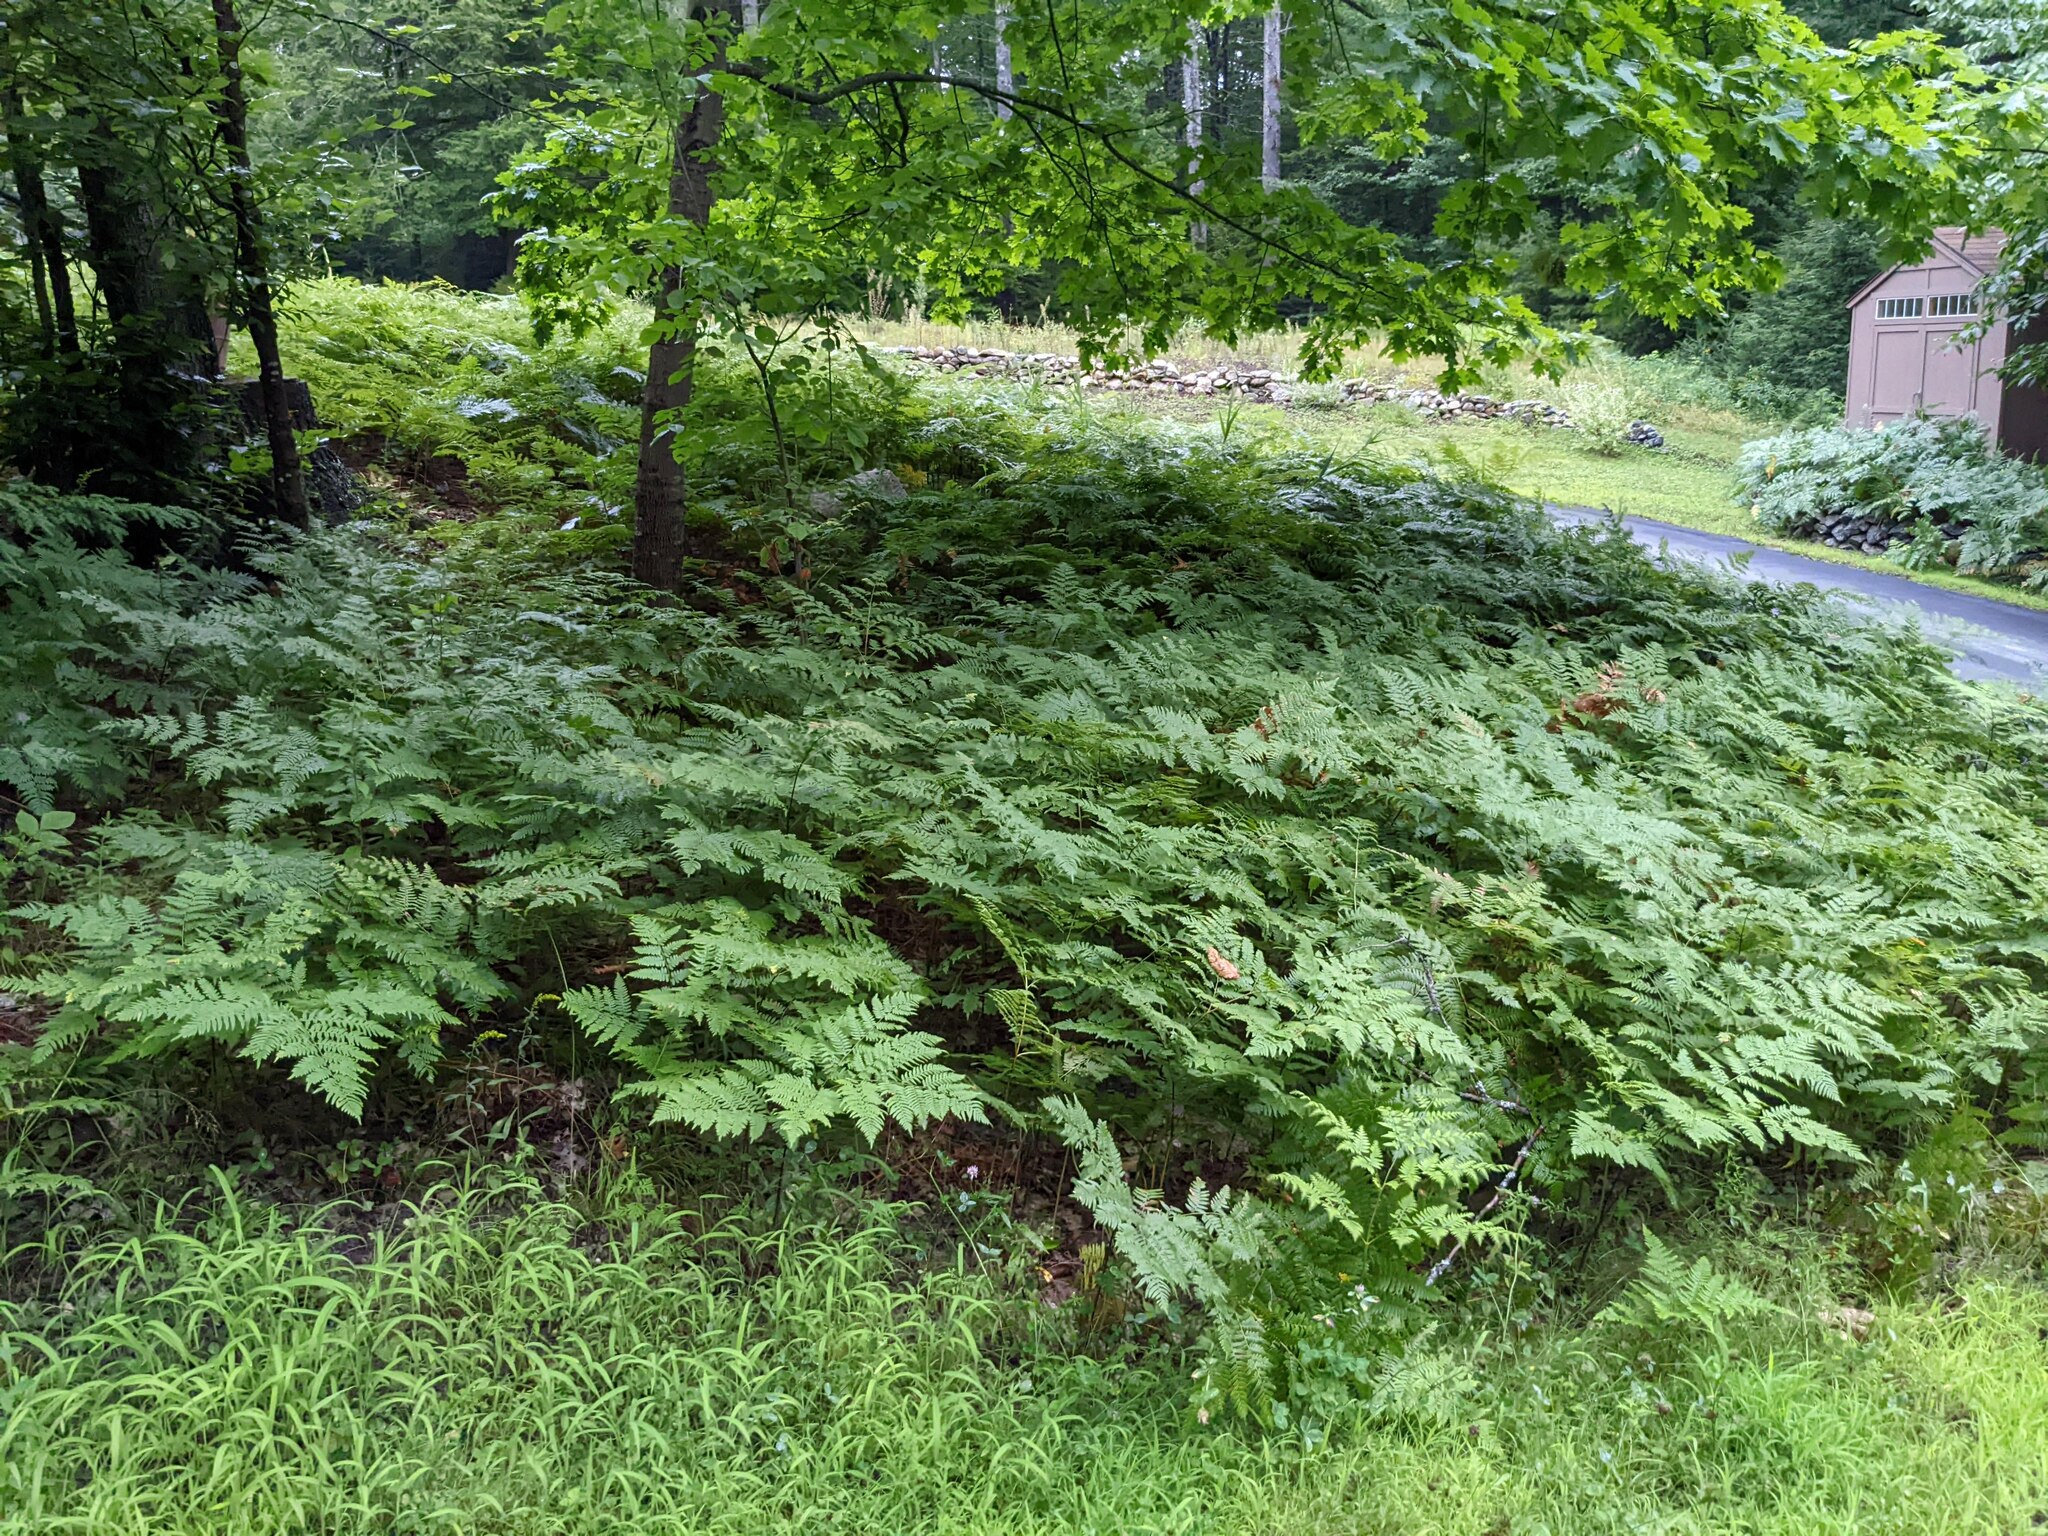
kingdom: Plantae
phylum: Tracheophyta
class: Polypodiopsida
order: Polypodiales
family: Dennstaedtiaceae
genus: Pteridium
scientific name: Pteridium aquilinum
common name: Bracken
